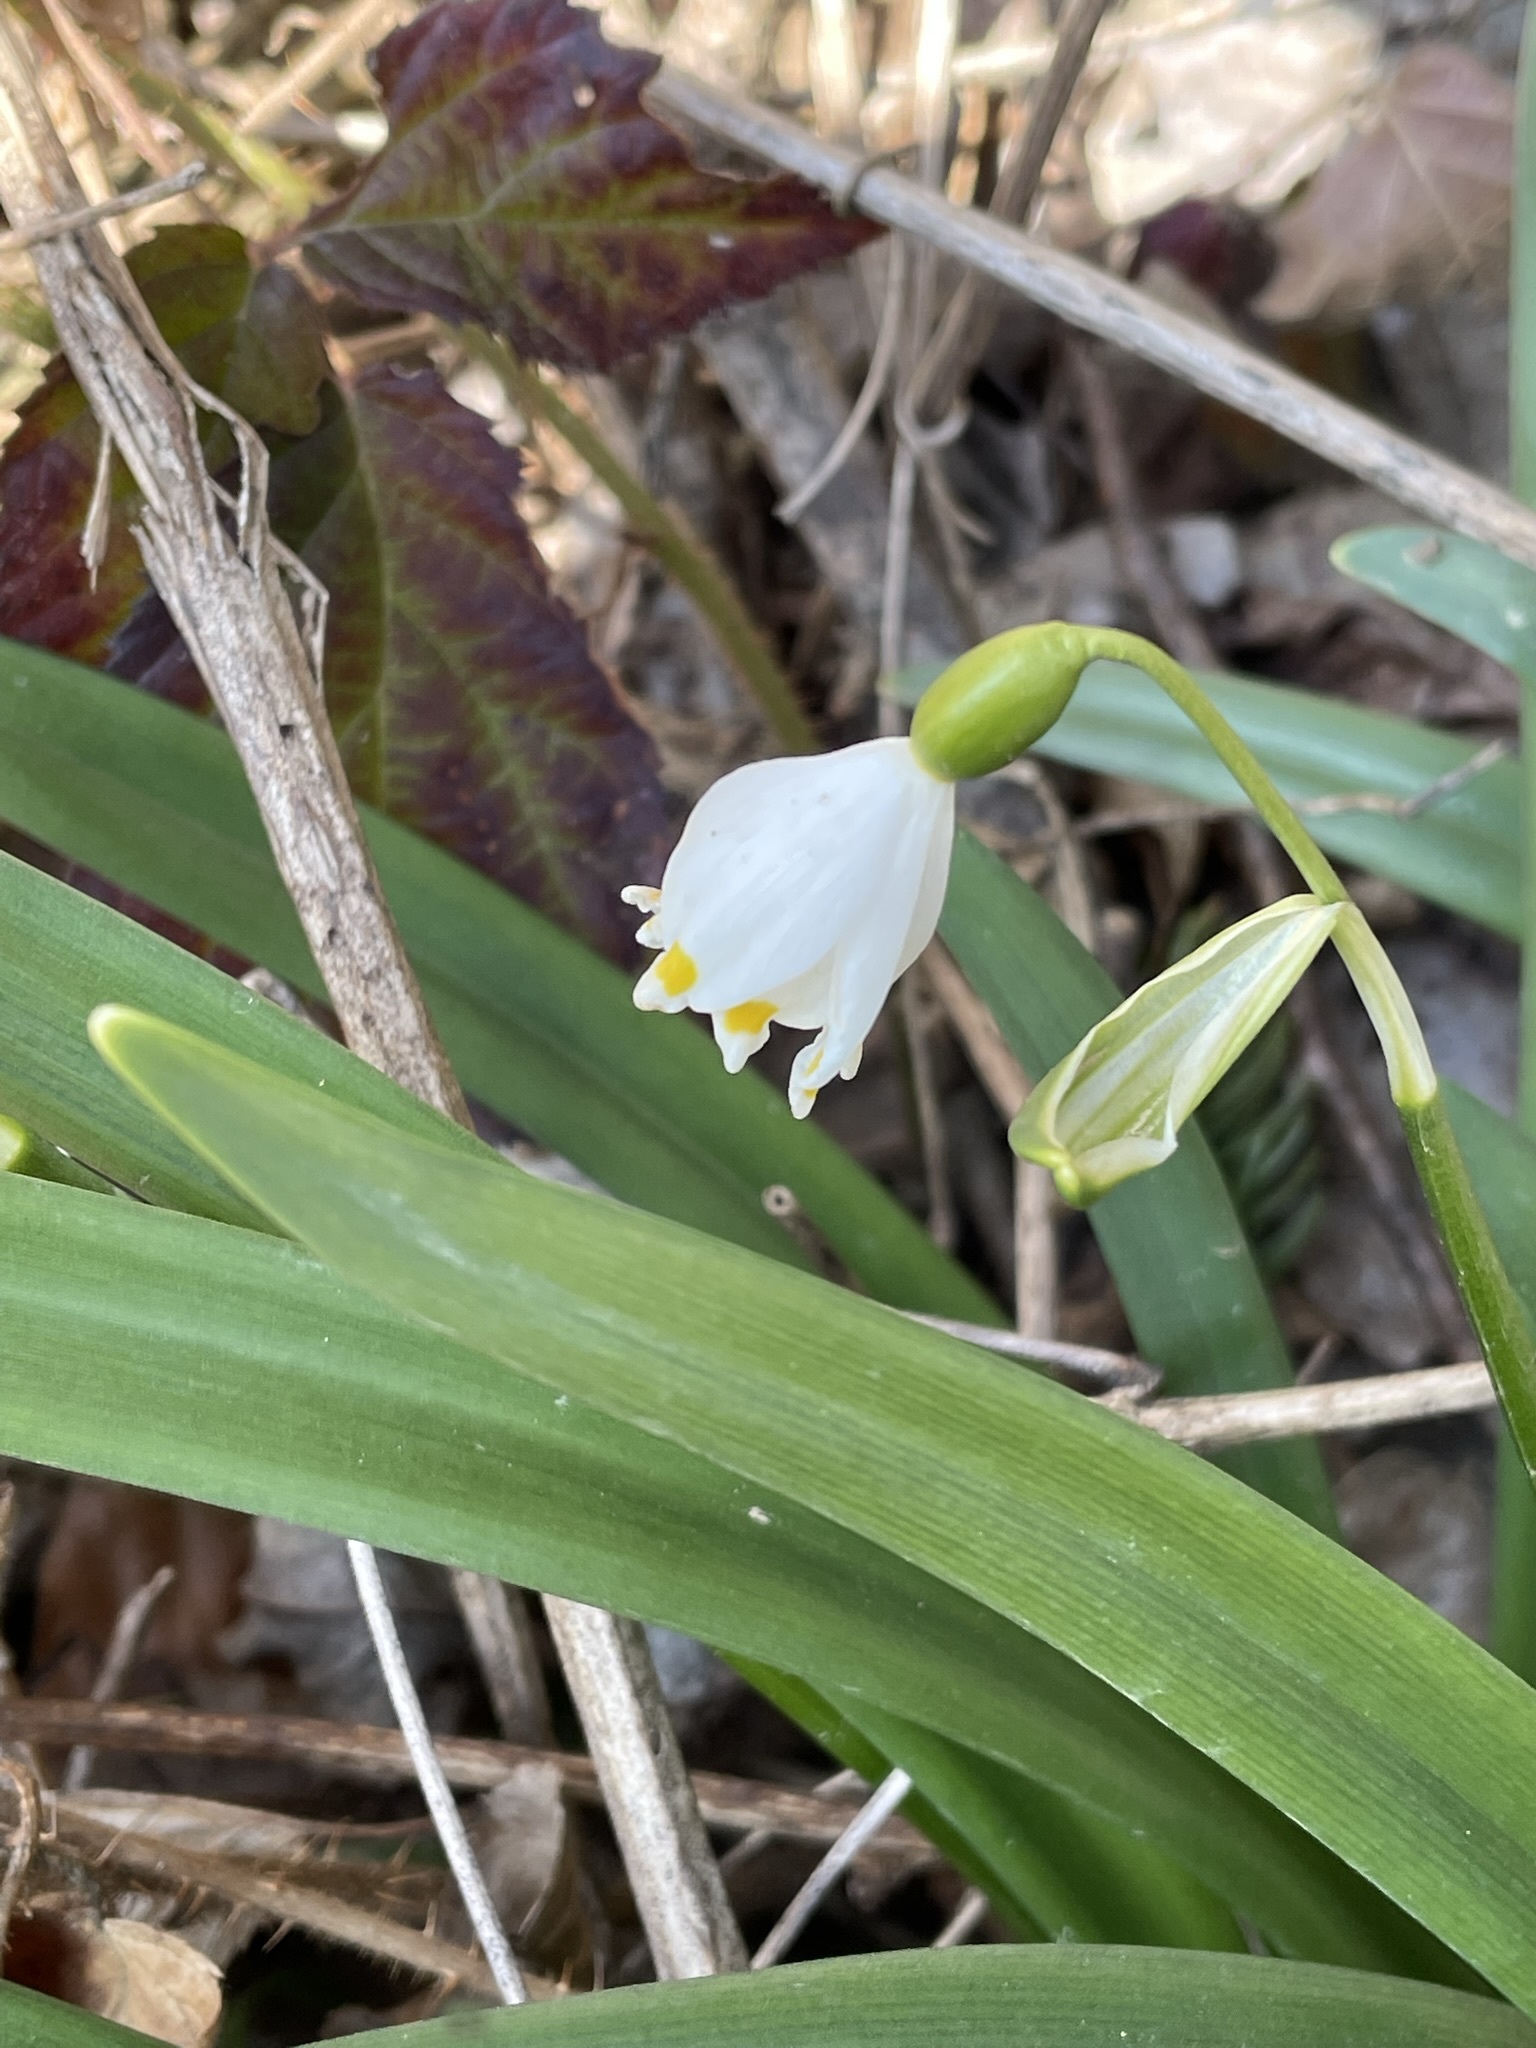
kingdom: Plantae
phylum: Tracheophyta
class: Liliopsida
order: Asparagales
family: Amaryllidaceae
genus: Leucojum
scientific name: Leucojum vernum
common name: Spring snowflake
